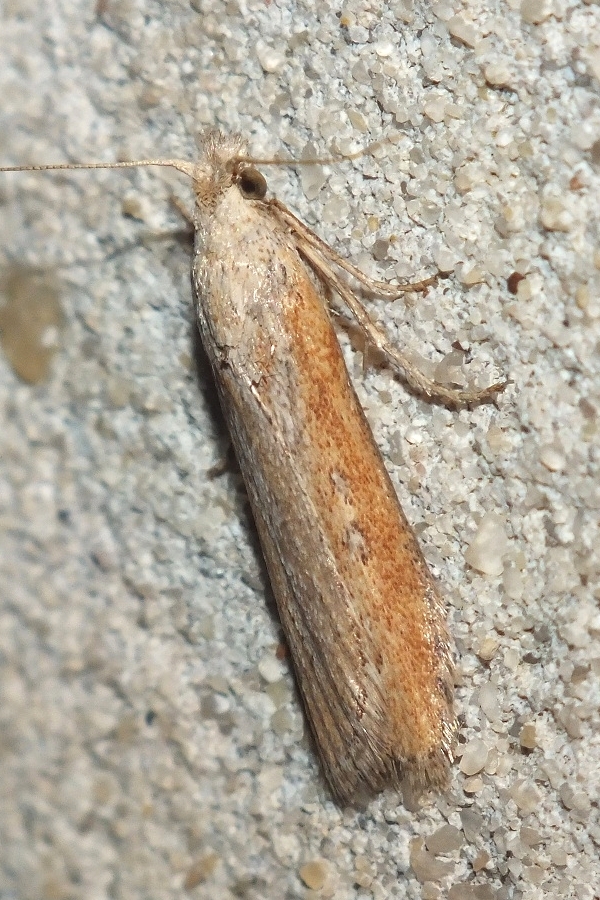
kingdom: Animalia
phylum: Arthropoda
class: Insecta
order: Lepidoptera
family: Pyralidae
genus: Aphomia
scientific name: Aphomia zelleri
